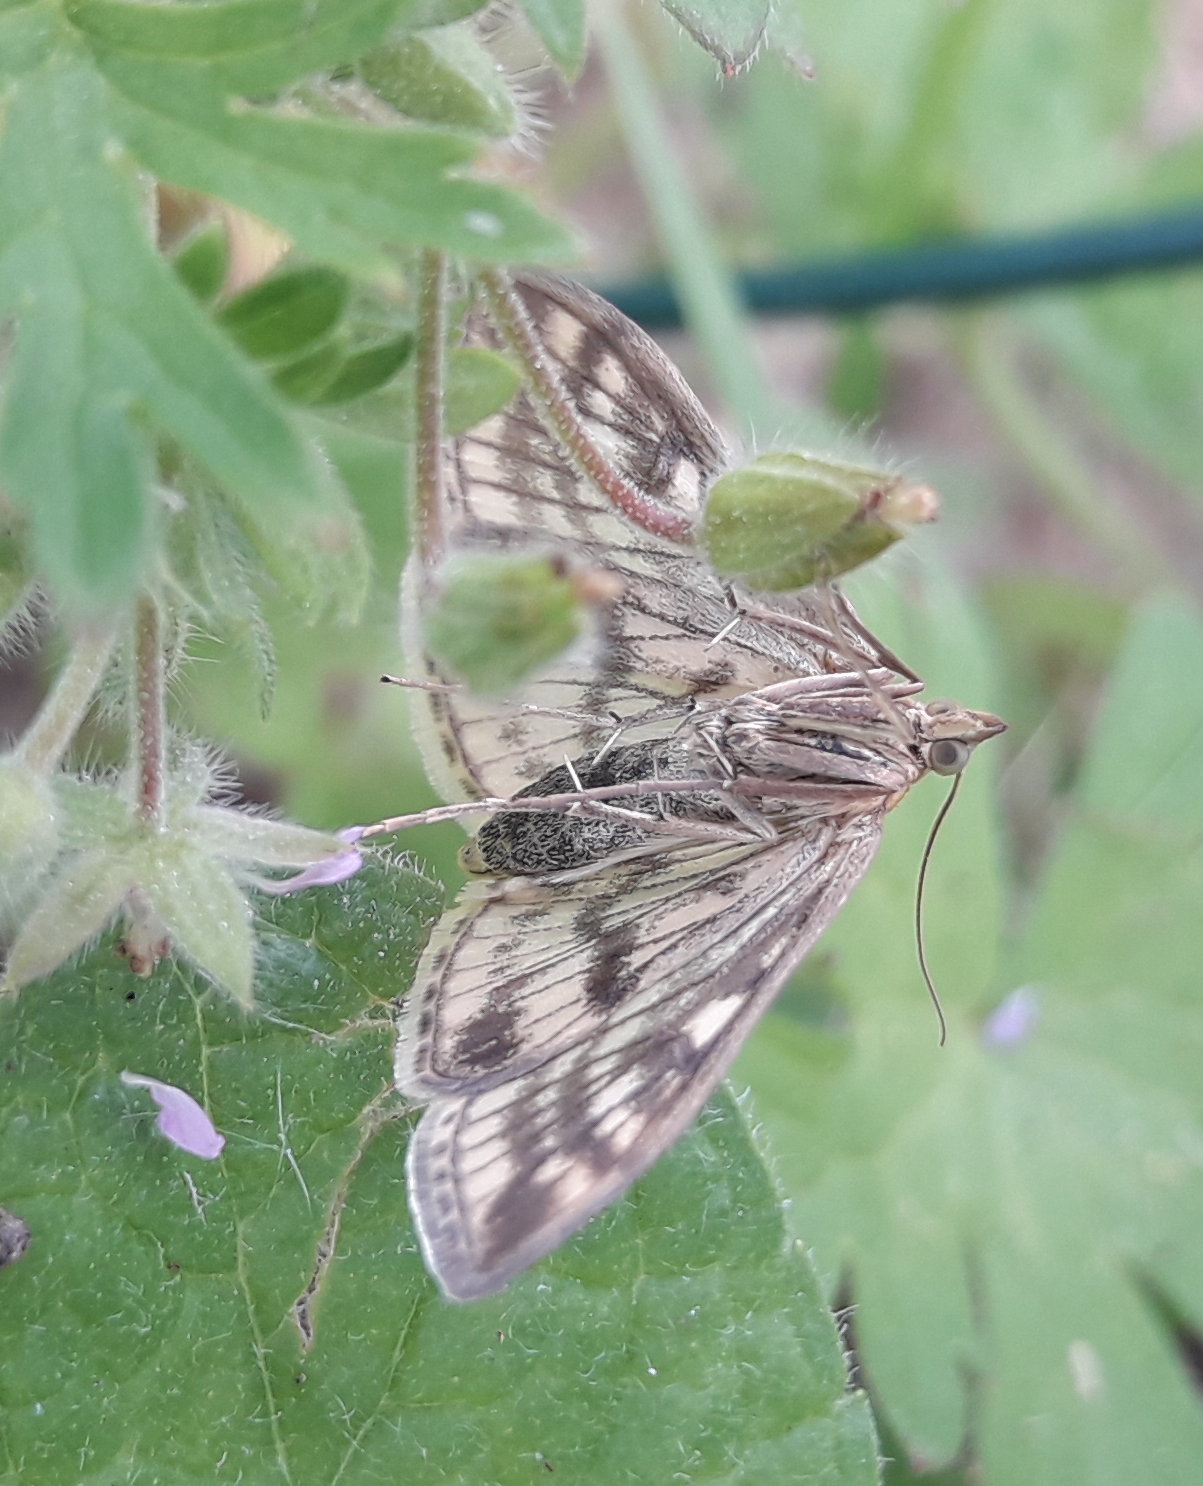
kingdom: Animalia
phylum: Arthropoda
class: Insecta
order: Lepidoptera
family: Crambidae
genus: Sitochroa
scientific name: Sitochroa verticalis
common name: Lesser pearl
